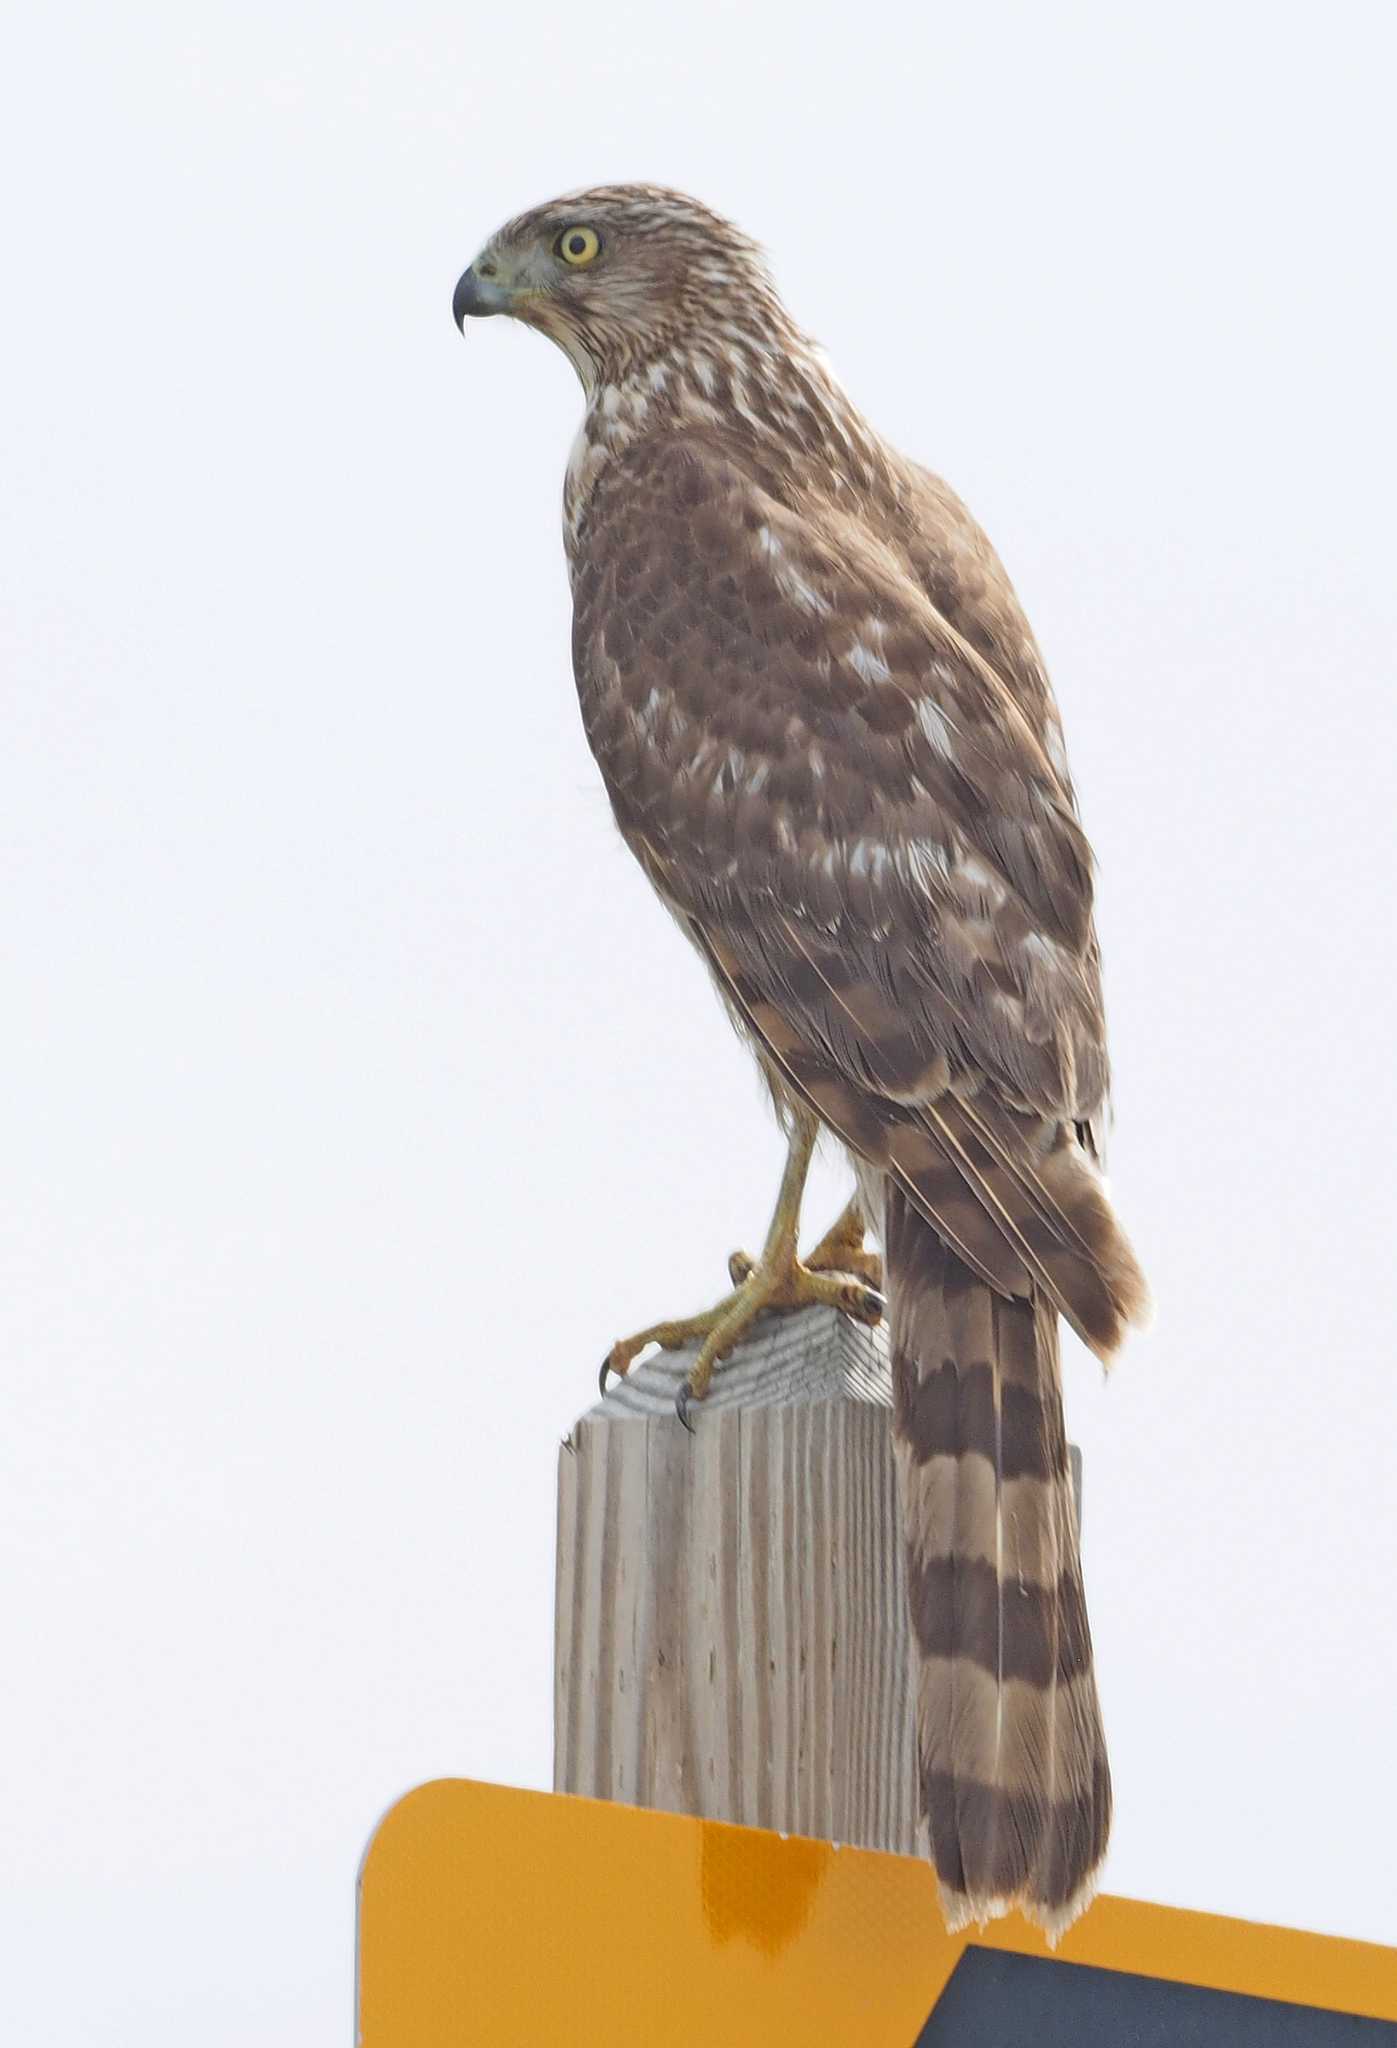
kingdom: Animalia
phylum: Chordata
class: Aves
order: Accipitriformes
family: Accipitridae
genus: Accipiter
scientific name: Accipiter cooperii
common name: Cooper's hawk
